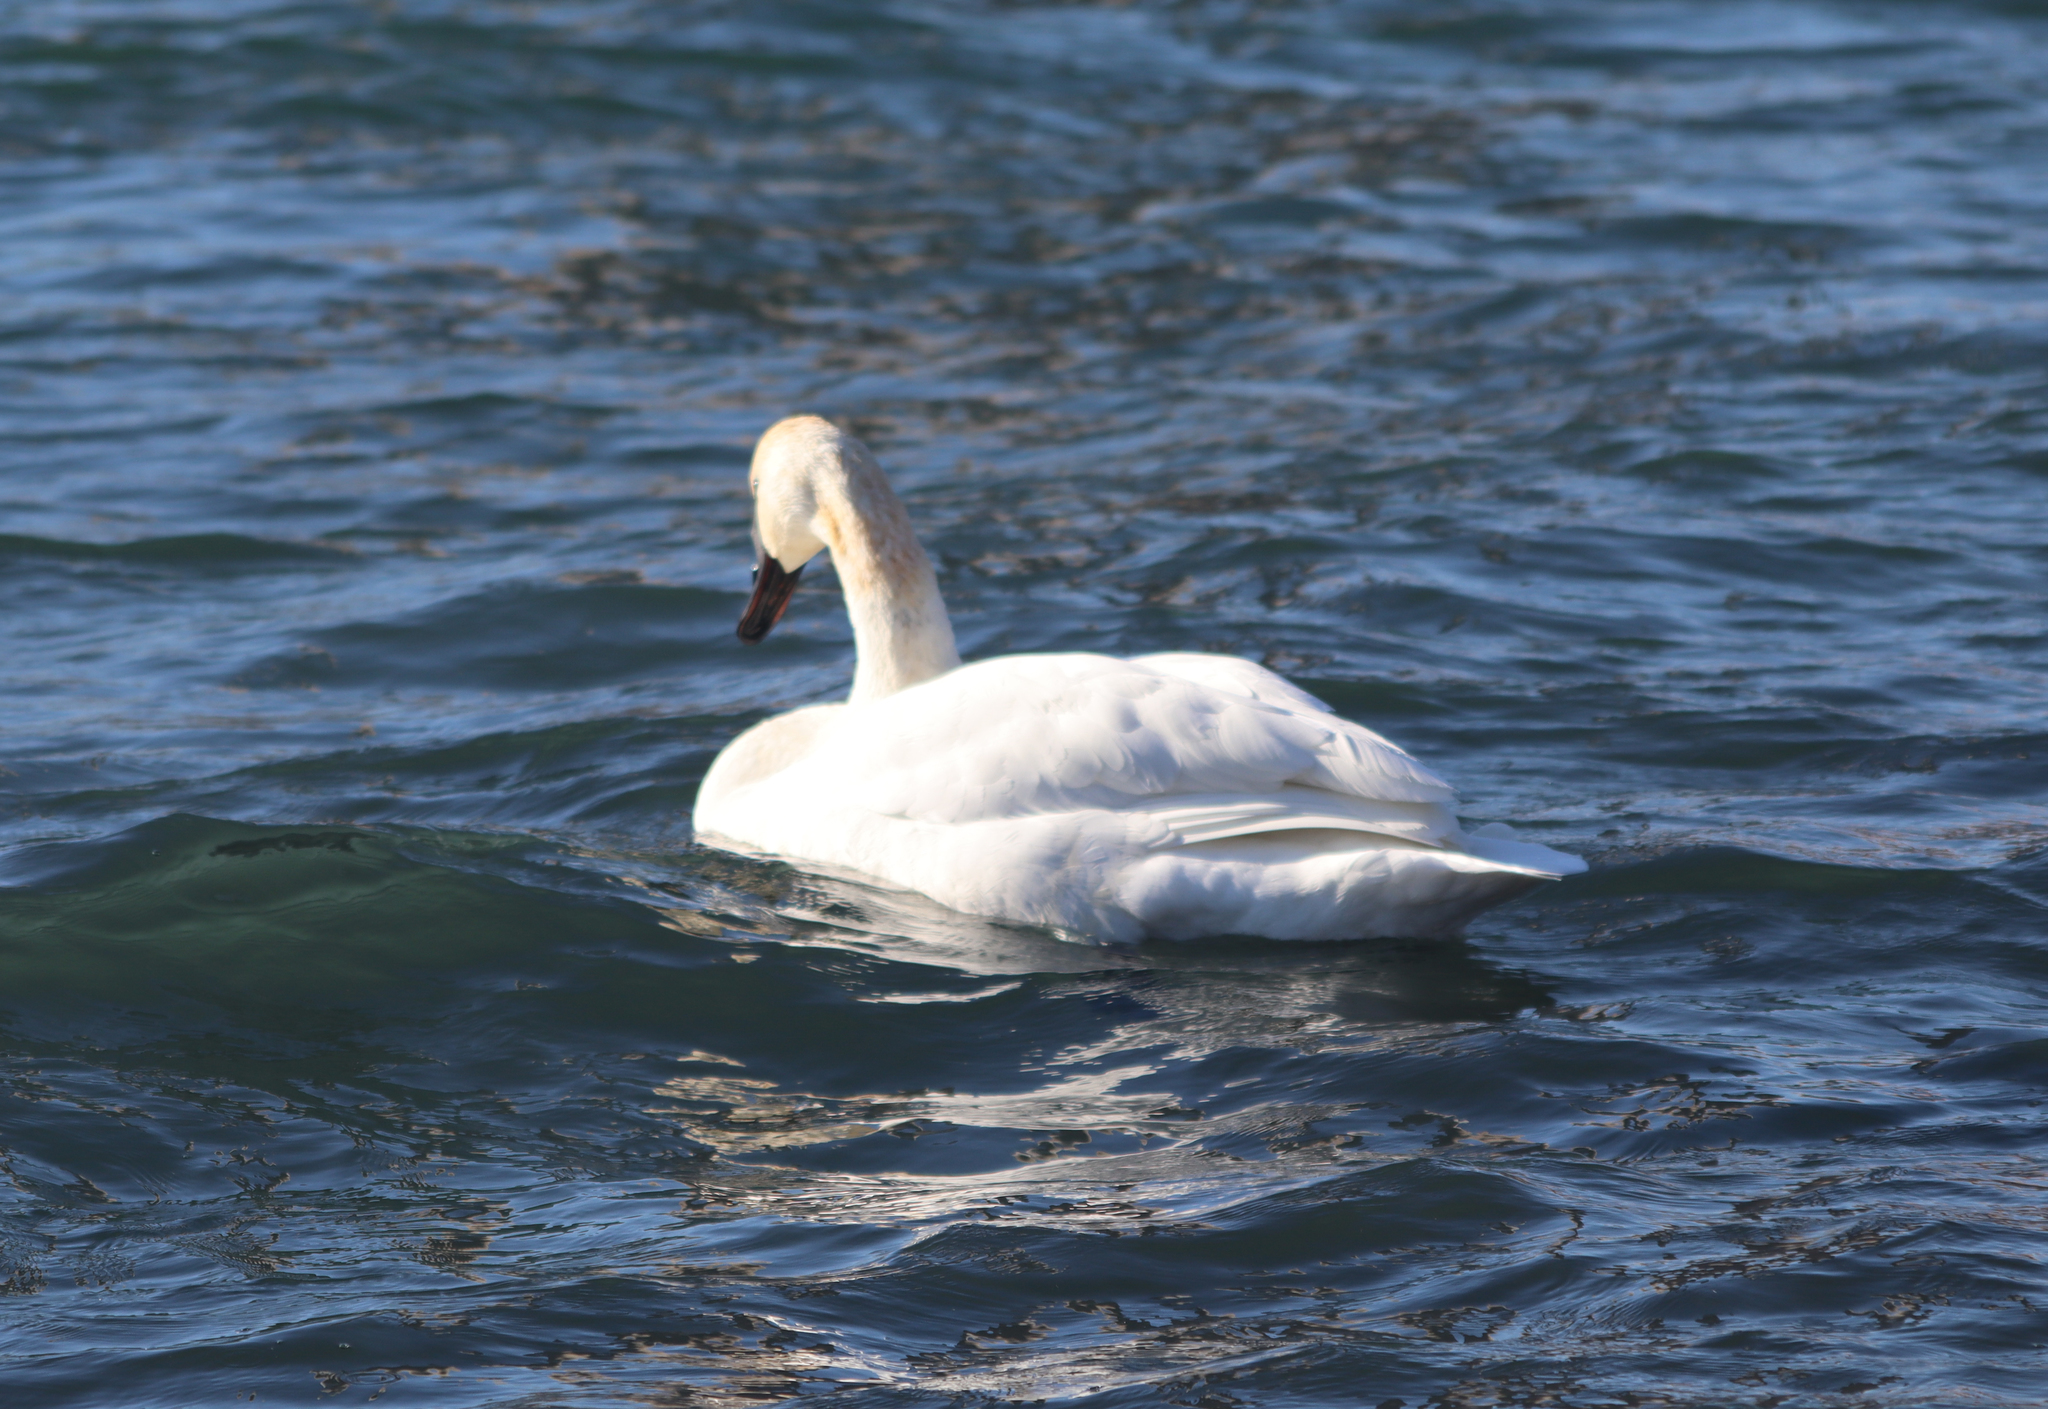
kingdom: Animalia
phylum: Chordata
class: Aves
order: Anseriformes
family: Anatidae
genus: Cygnus
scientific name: Cygnus buccinator
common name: Trumpeter swan
